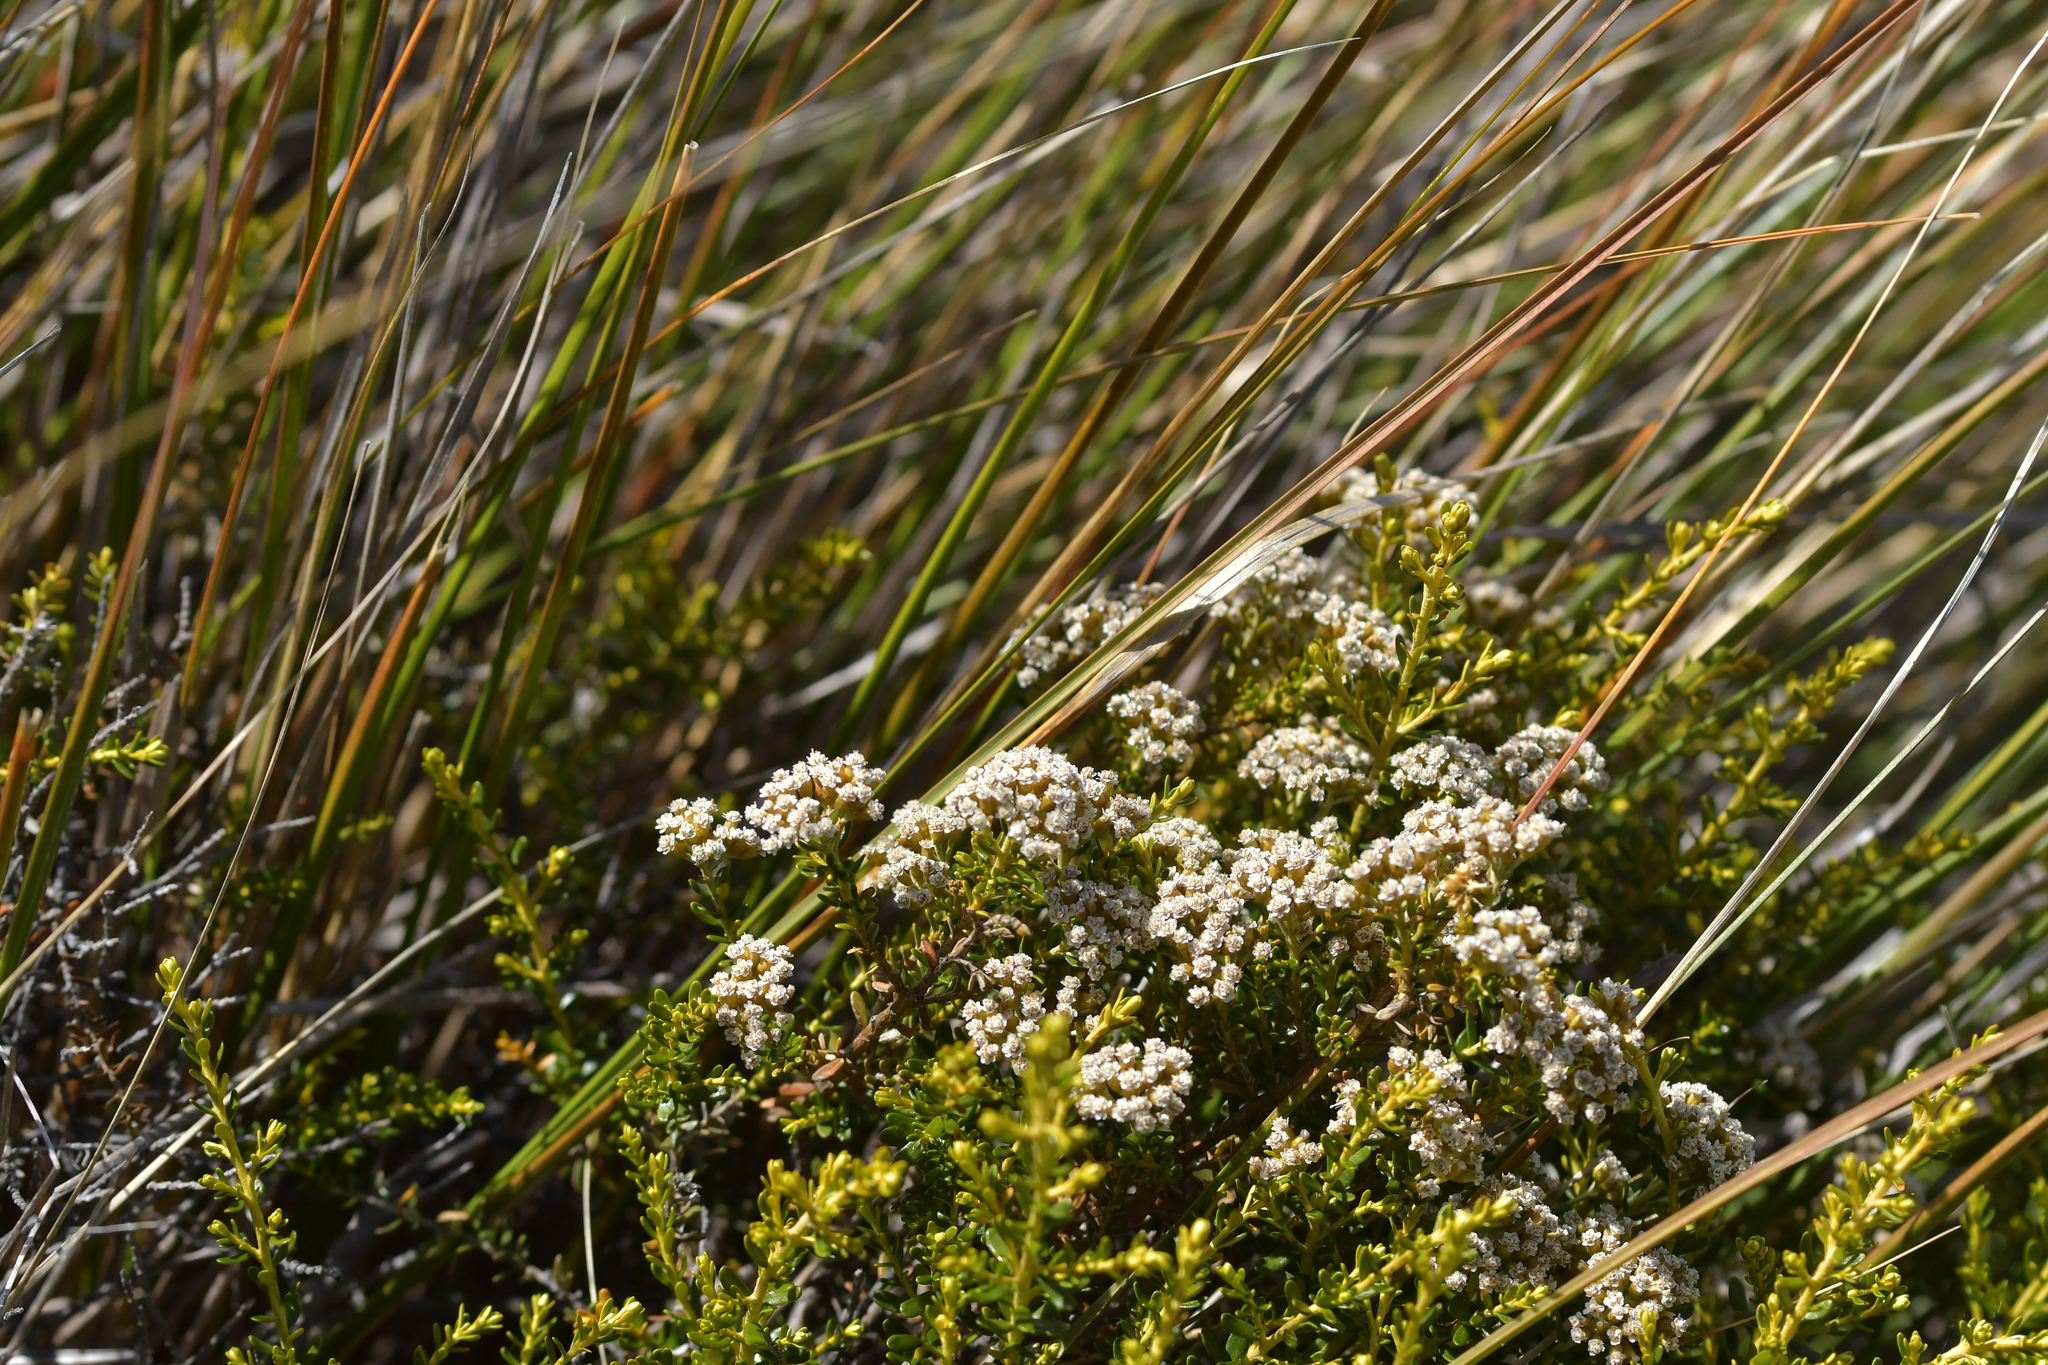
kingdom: Plantae
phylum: Tracheophyta
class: Magnoliopsida
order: Asterales
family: Asteraceae
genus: Ozothamnus
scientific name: Ozothamnus leptophyllus
